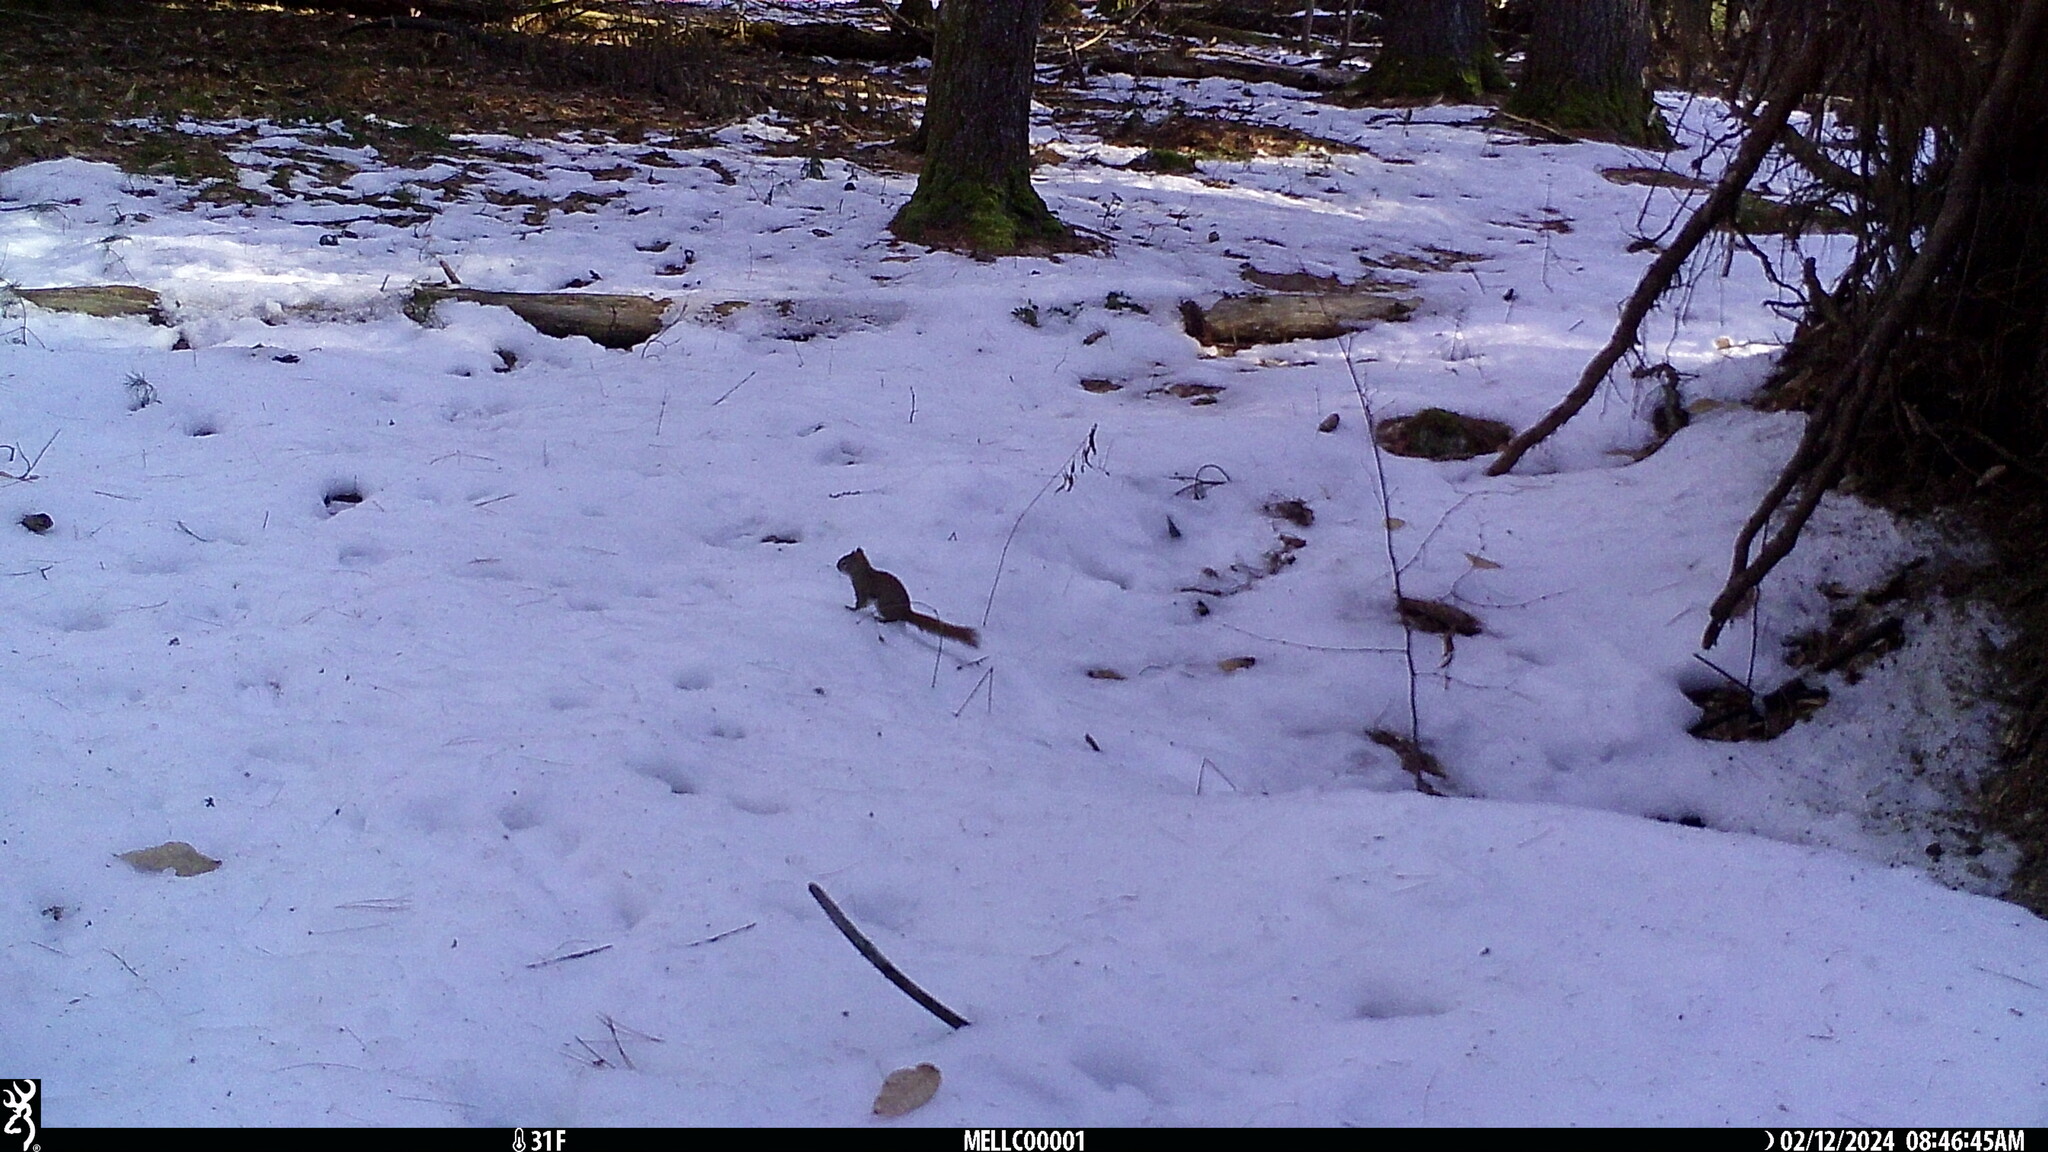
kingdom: Animalia
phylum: Chordata
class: Mammalia
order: Rodentia
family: Sciuridae
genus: Tamiasciurus
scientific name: Tamiasciurus hudsonicus
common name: Red squirrel
